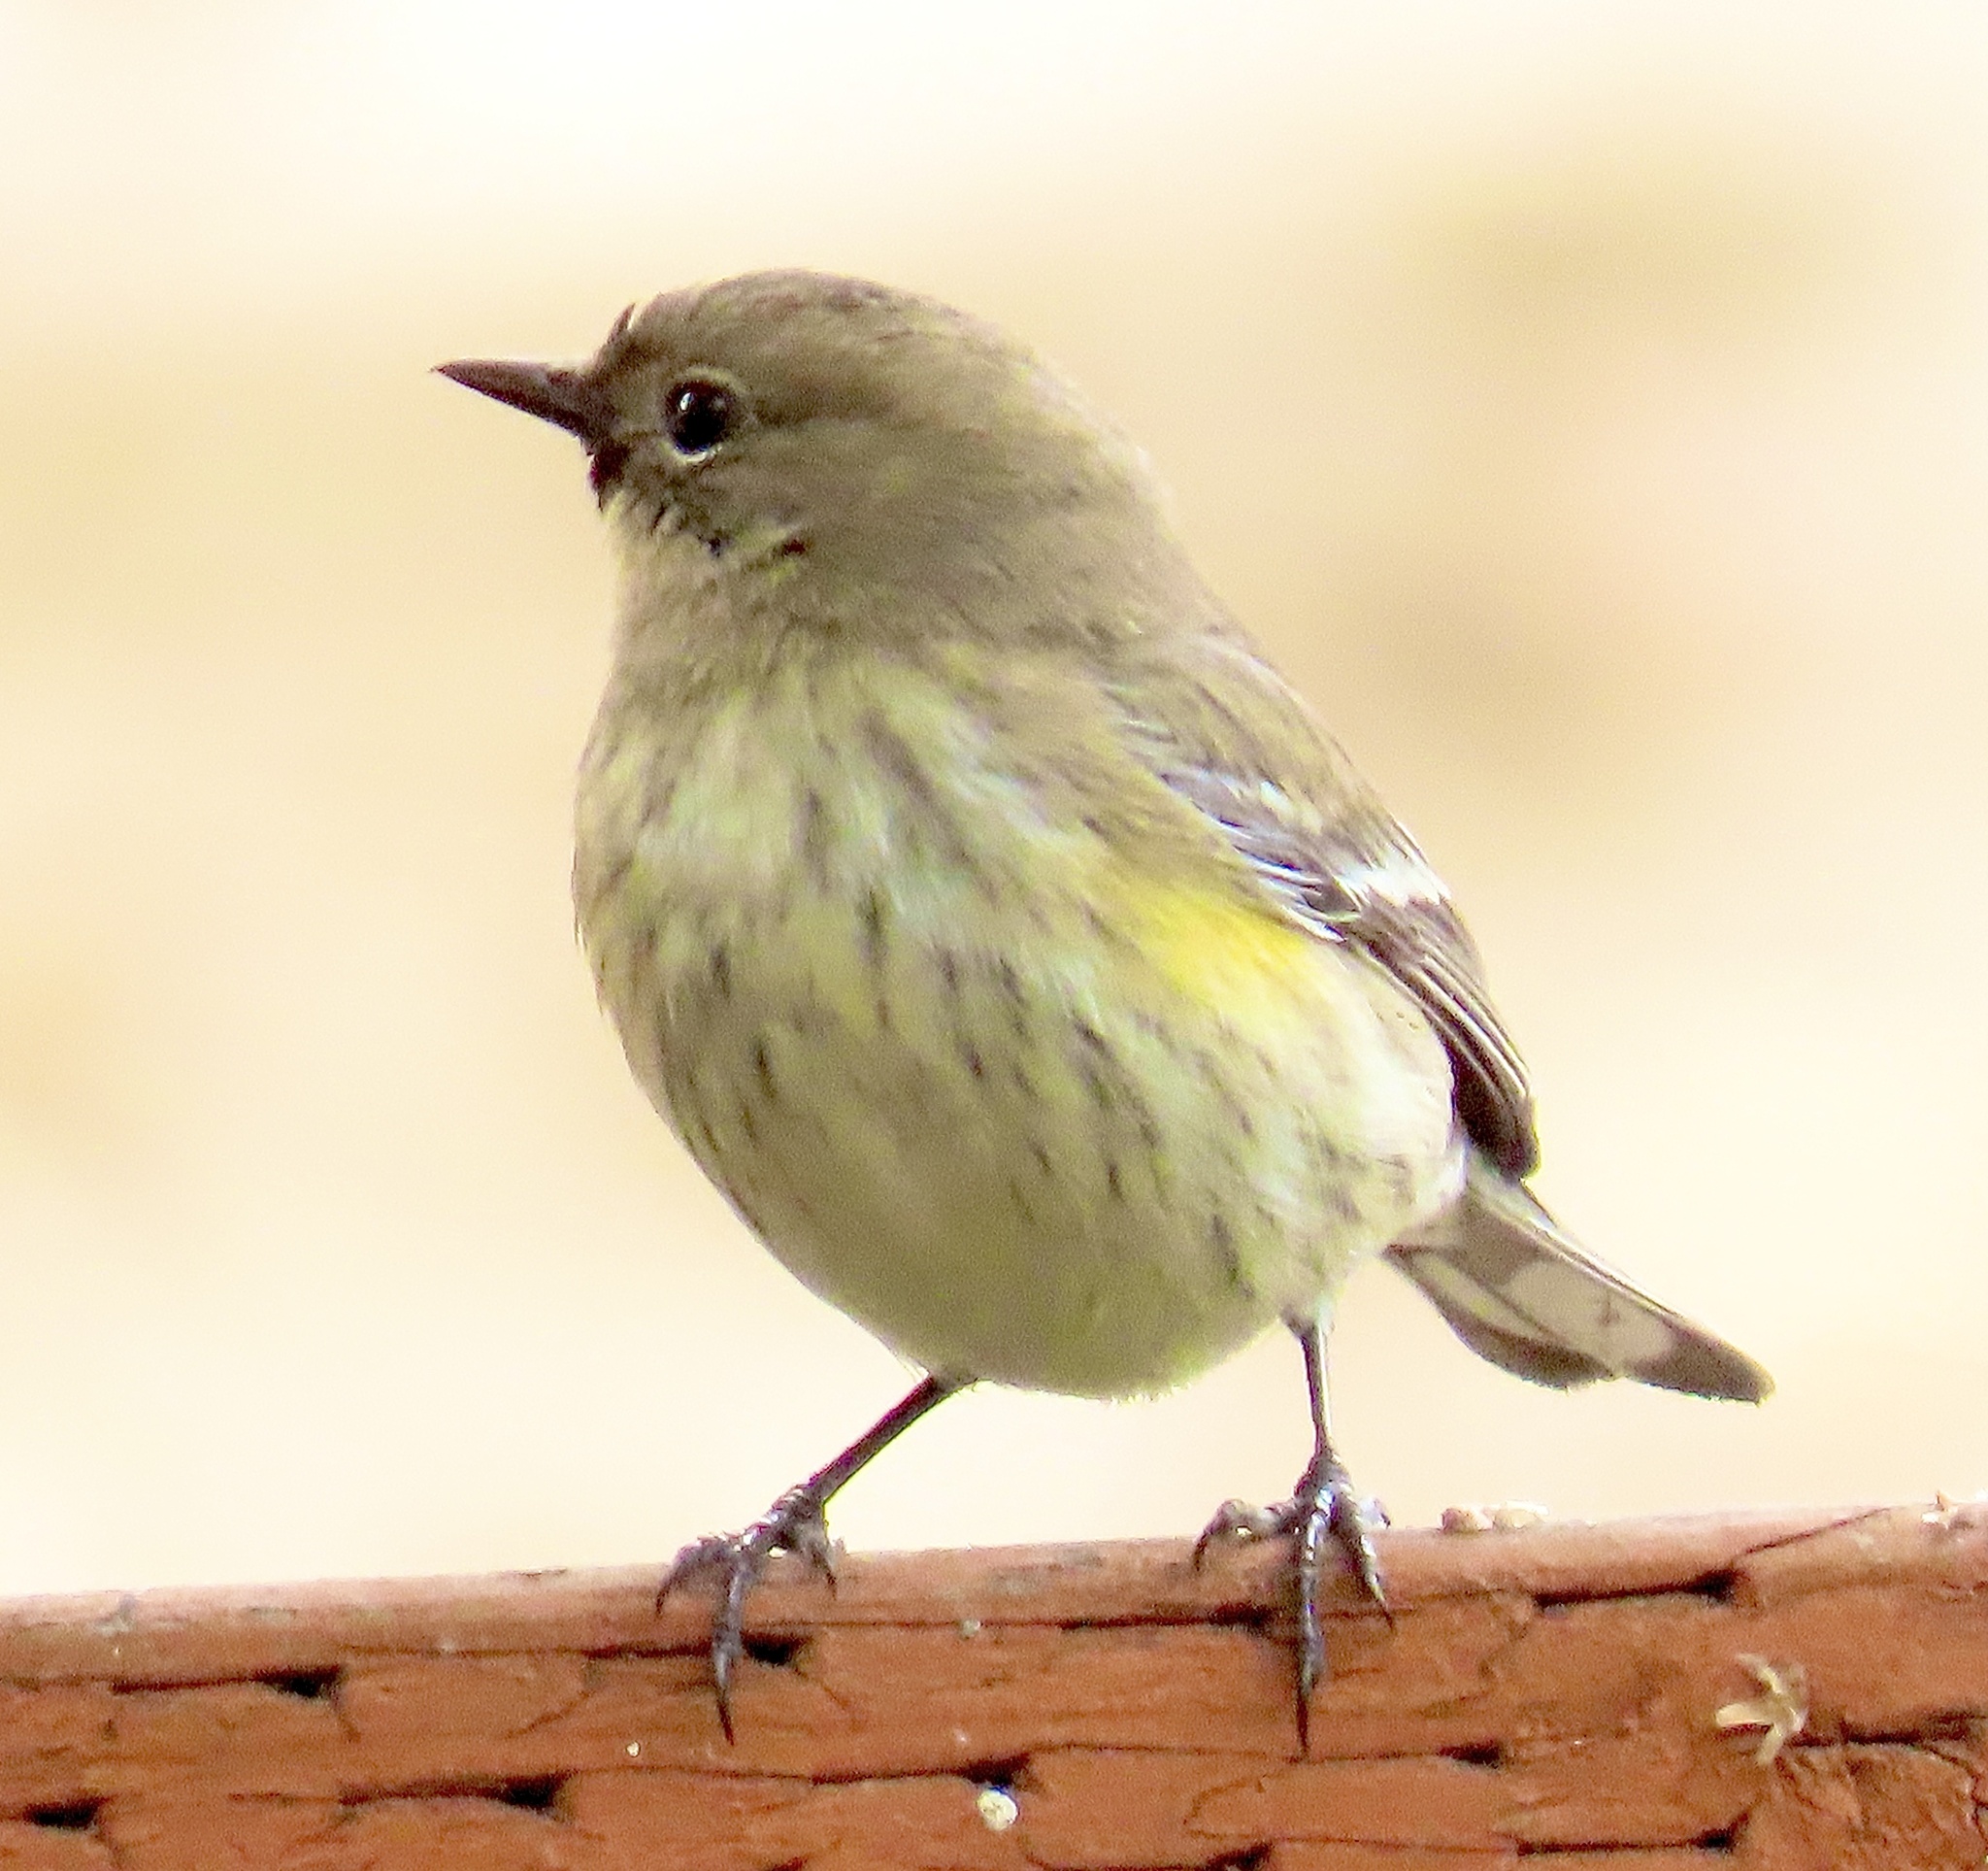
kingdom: Animalia
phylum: Chordata
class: Aves
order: Passeriformes
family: Parulidae
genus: Setophaga
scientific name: Setophaga coronata
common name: Myrtle warbler
